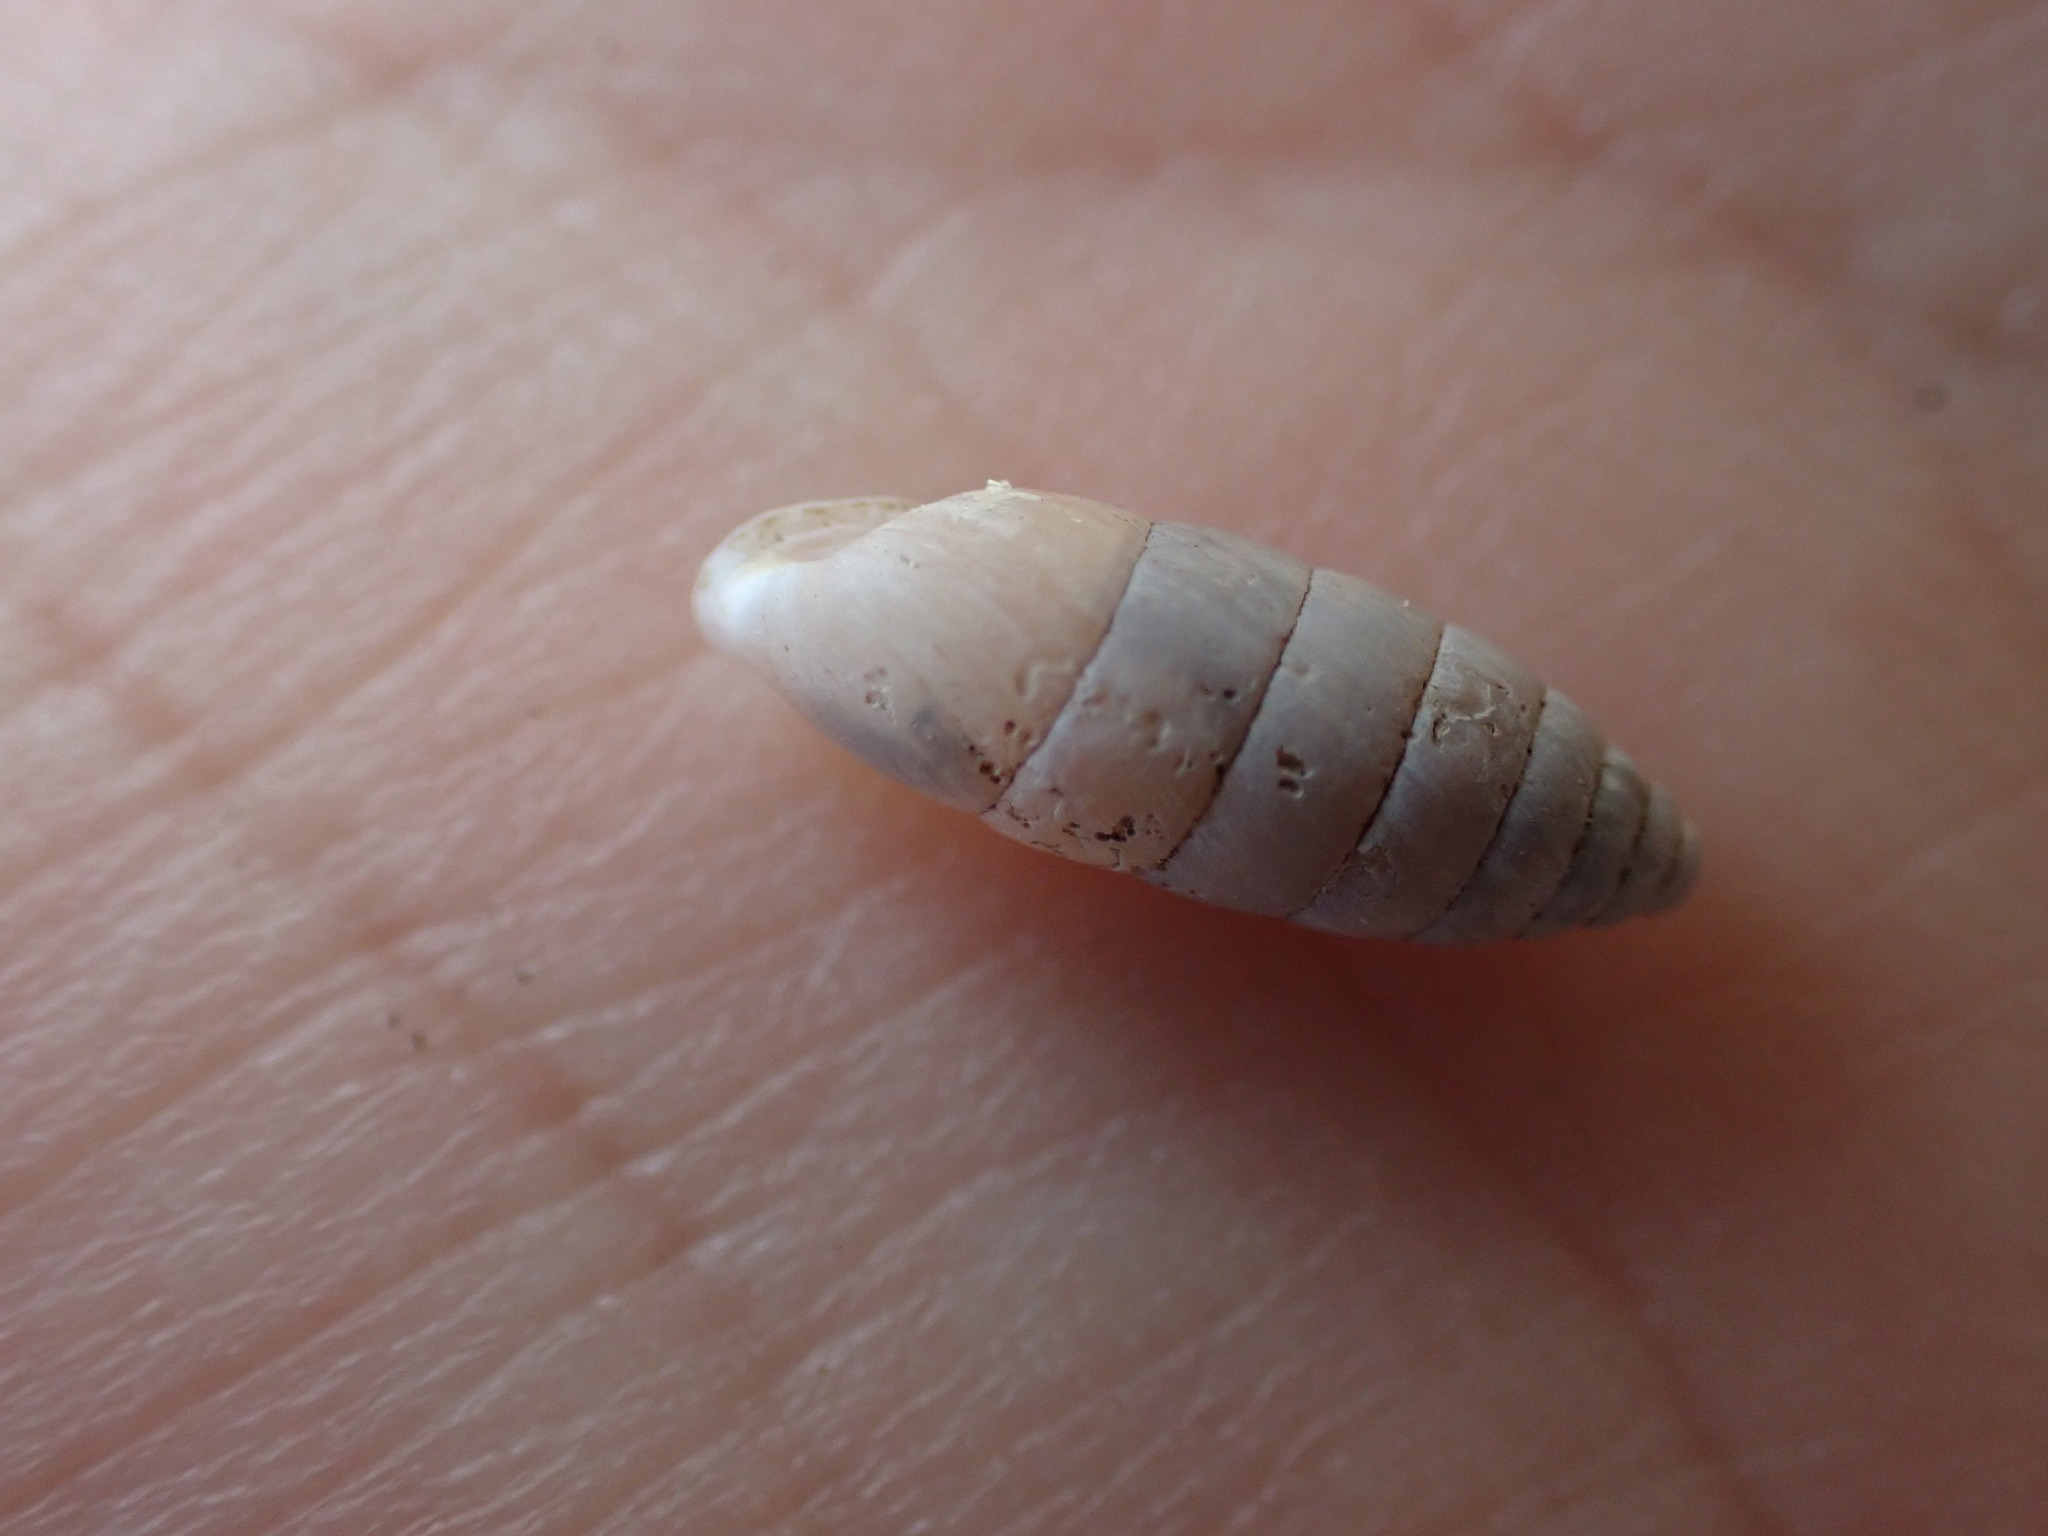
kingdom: Animalia
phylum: Mollusca
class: Gastropoda
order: Stylommatophora
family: Enidae
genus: Jaminia
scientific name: Jaminia quadridens
